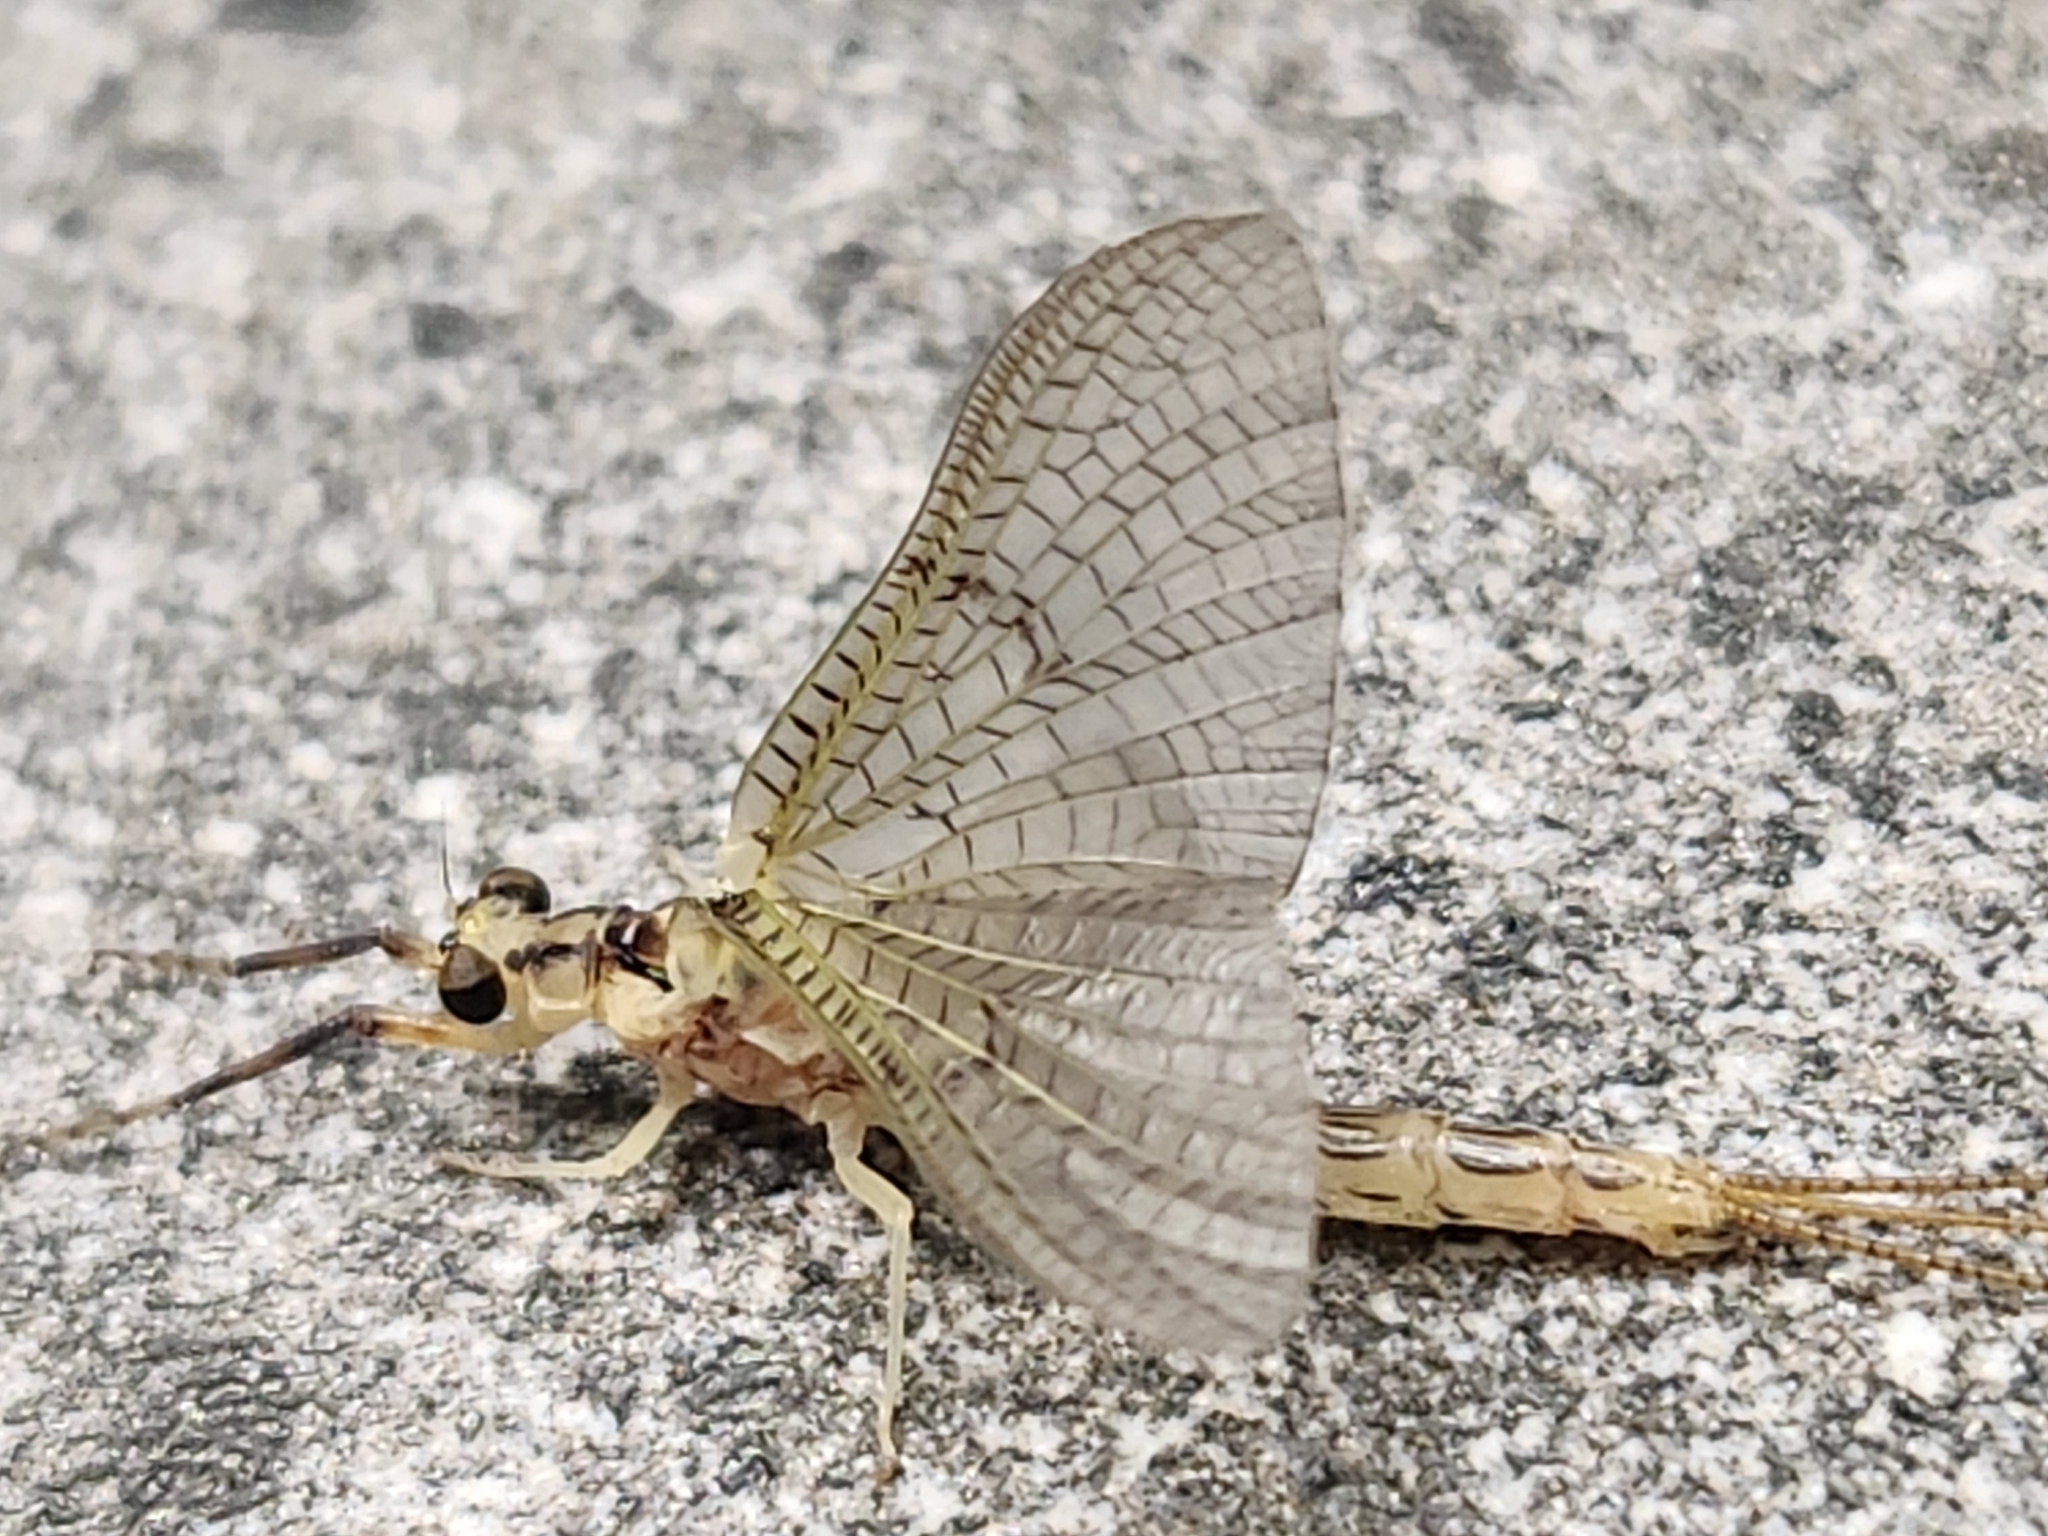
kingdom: Animalia
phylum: Arthropoda
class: Insecta
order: Ephemeroptera
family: Ephemeridae
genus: Ephemera
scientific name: Ephemera orientalis
